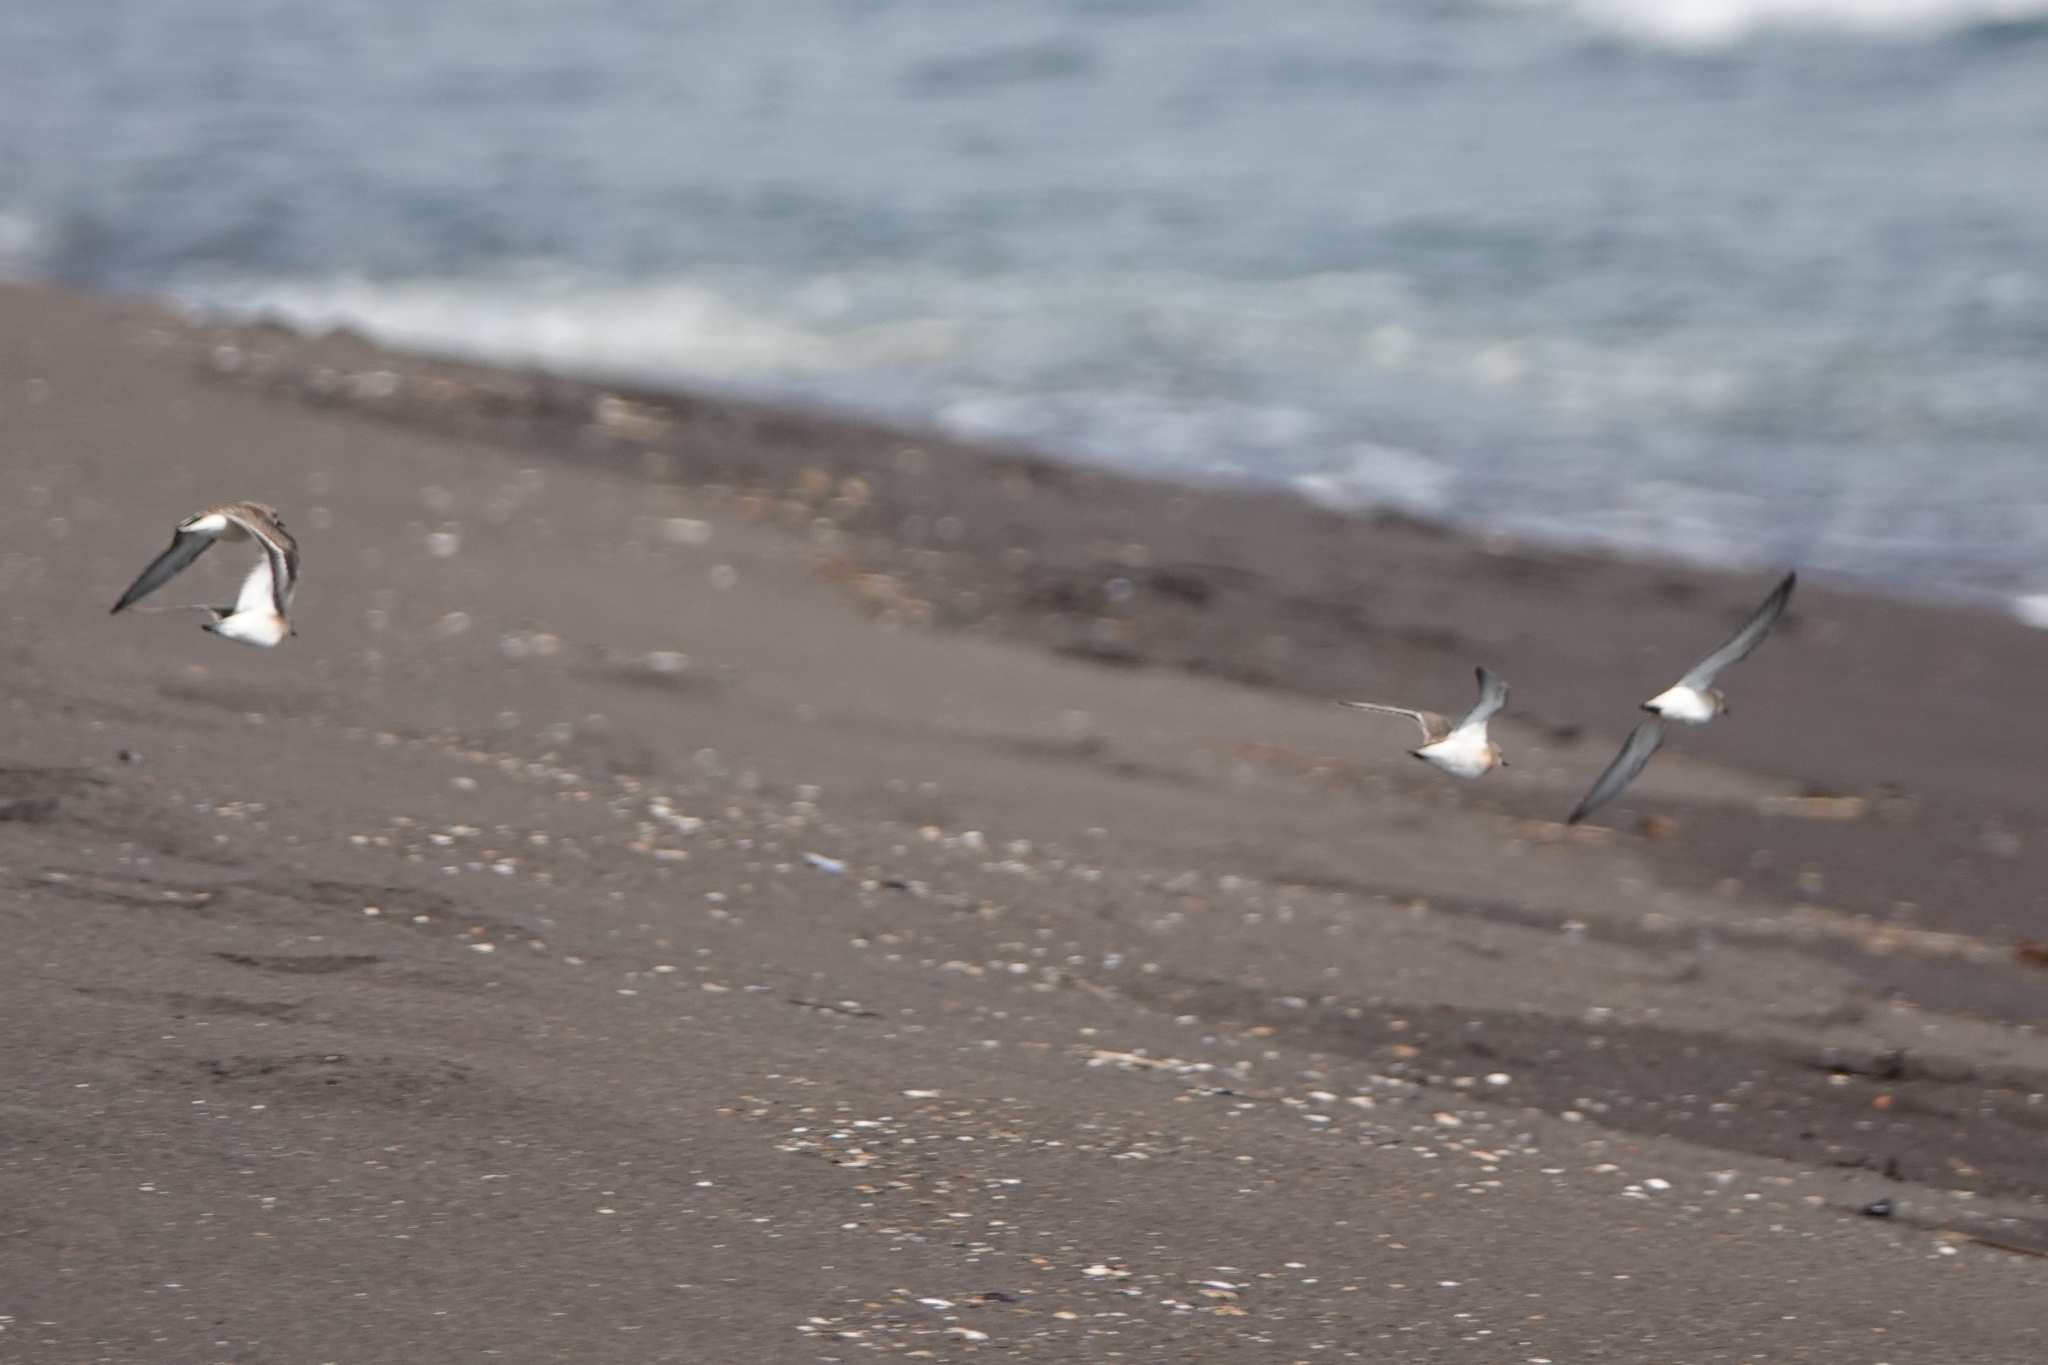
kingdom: Animalia
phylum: Chordata
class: Aves
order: Charadriiformes
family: Scolopacidae
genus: Calidris
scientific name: Calidris ruficollis
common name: Red-necked stint
